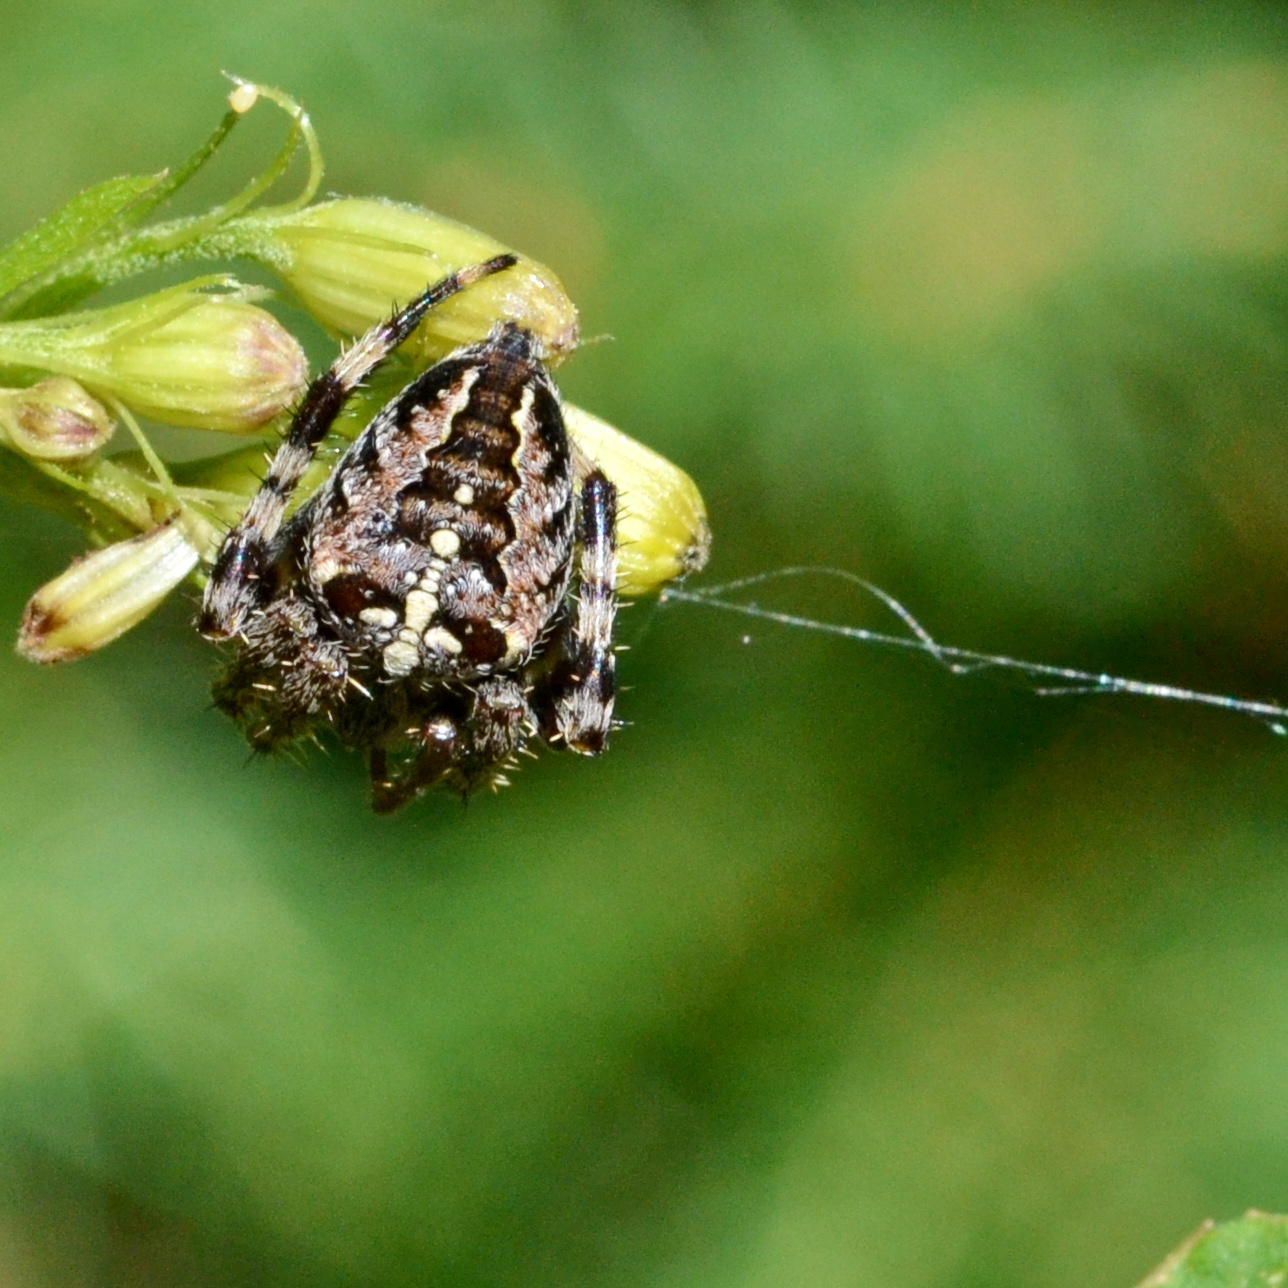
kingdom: Animalia
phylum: Arthropoda
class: Arachnida
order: Araneae
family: Araneidae
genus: Araneus
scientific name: Araneus diadematus
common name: Cross orbweaver
